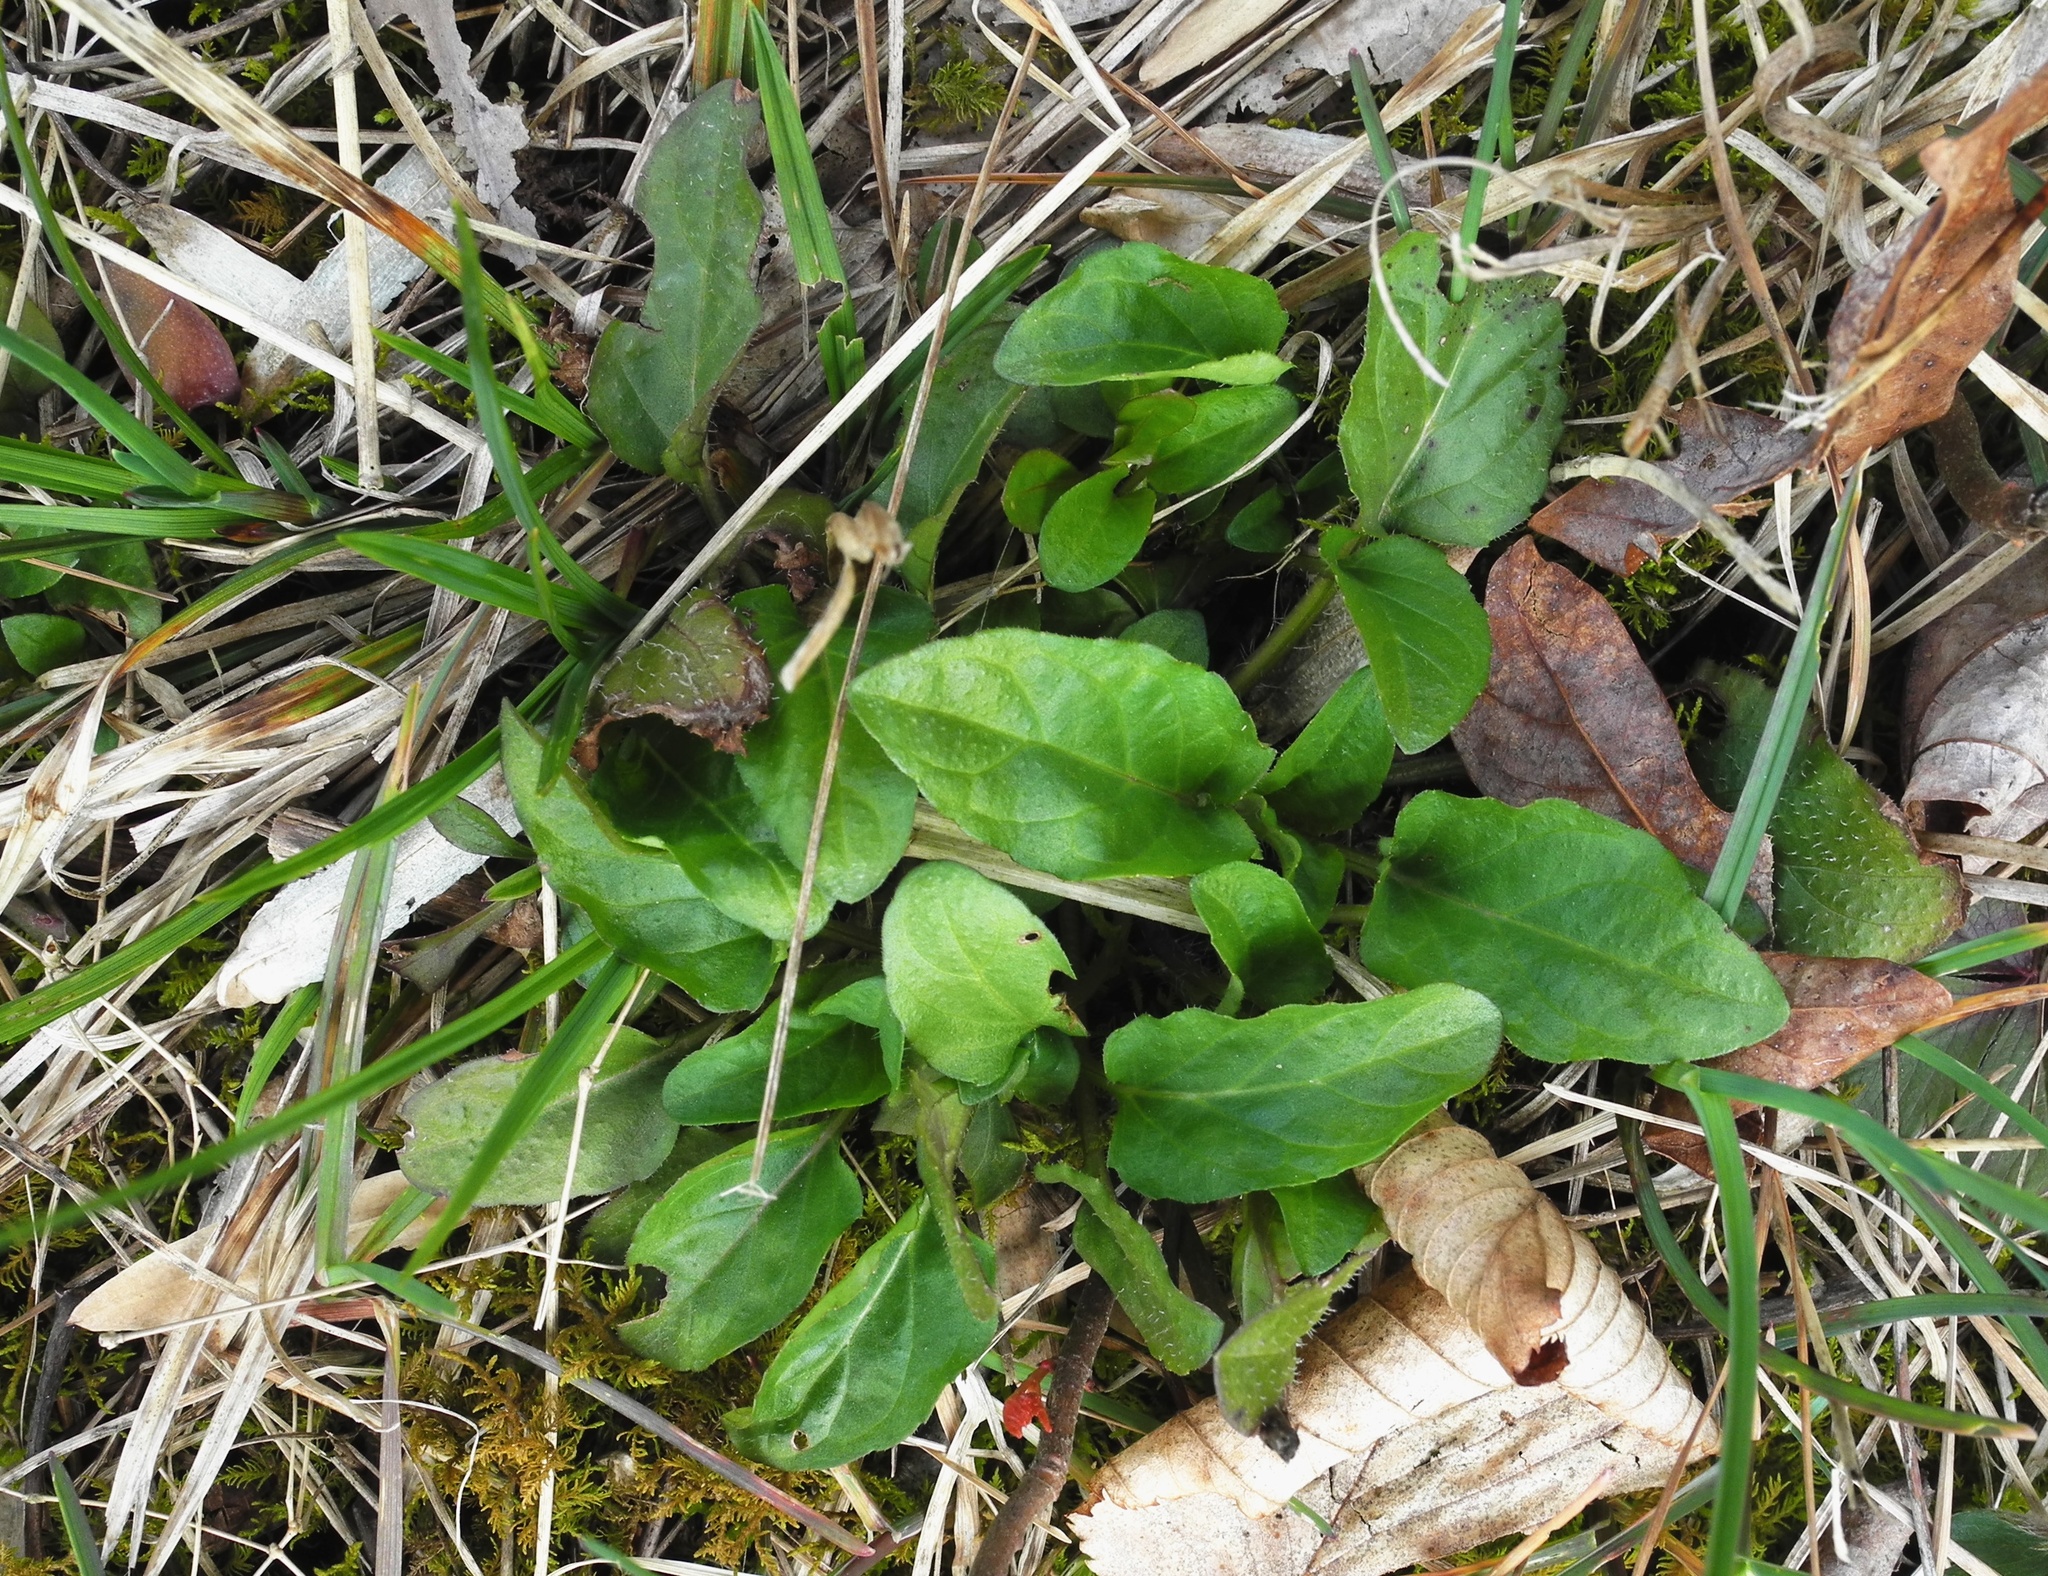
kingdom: Plantae
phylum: Tracheophyta
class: Magnoliopsida
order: Lamiales
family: Lamiaceae
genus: Prunella
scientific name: Prunella vulgaris
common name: Heal-all
